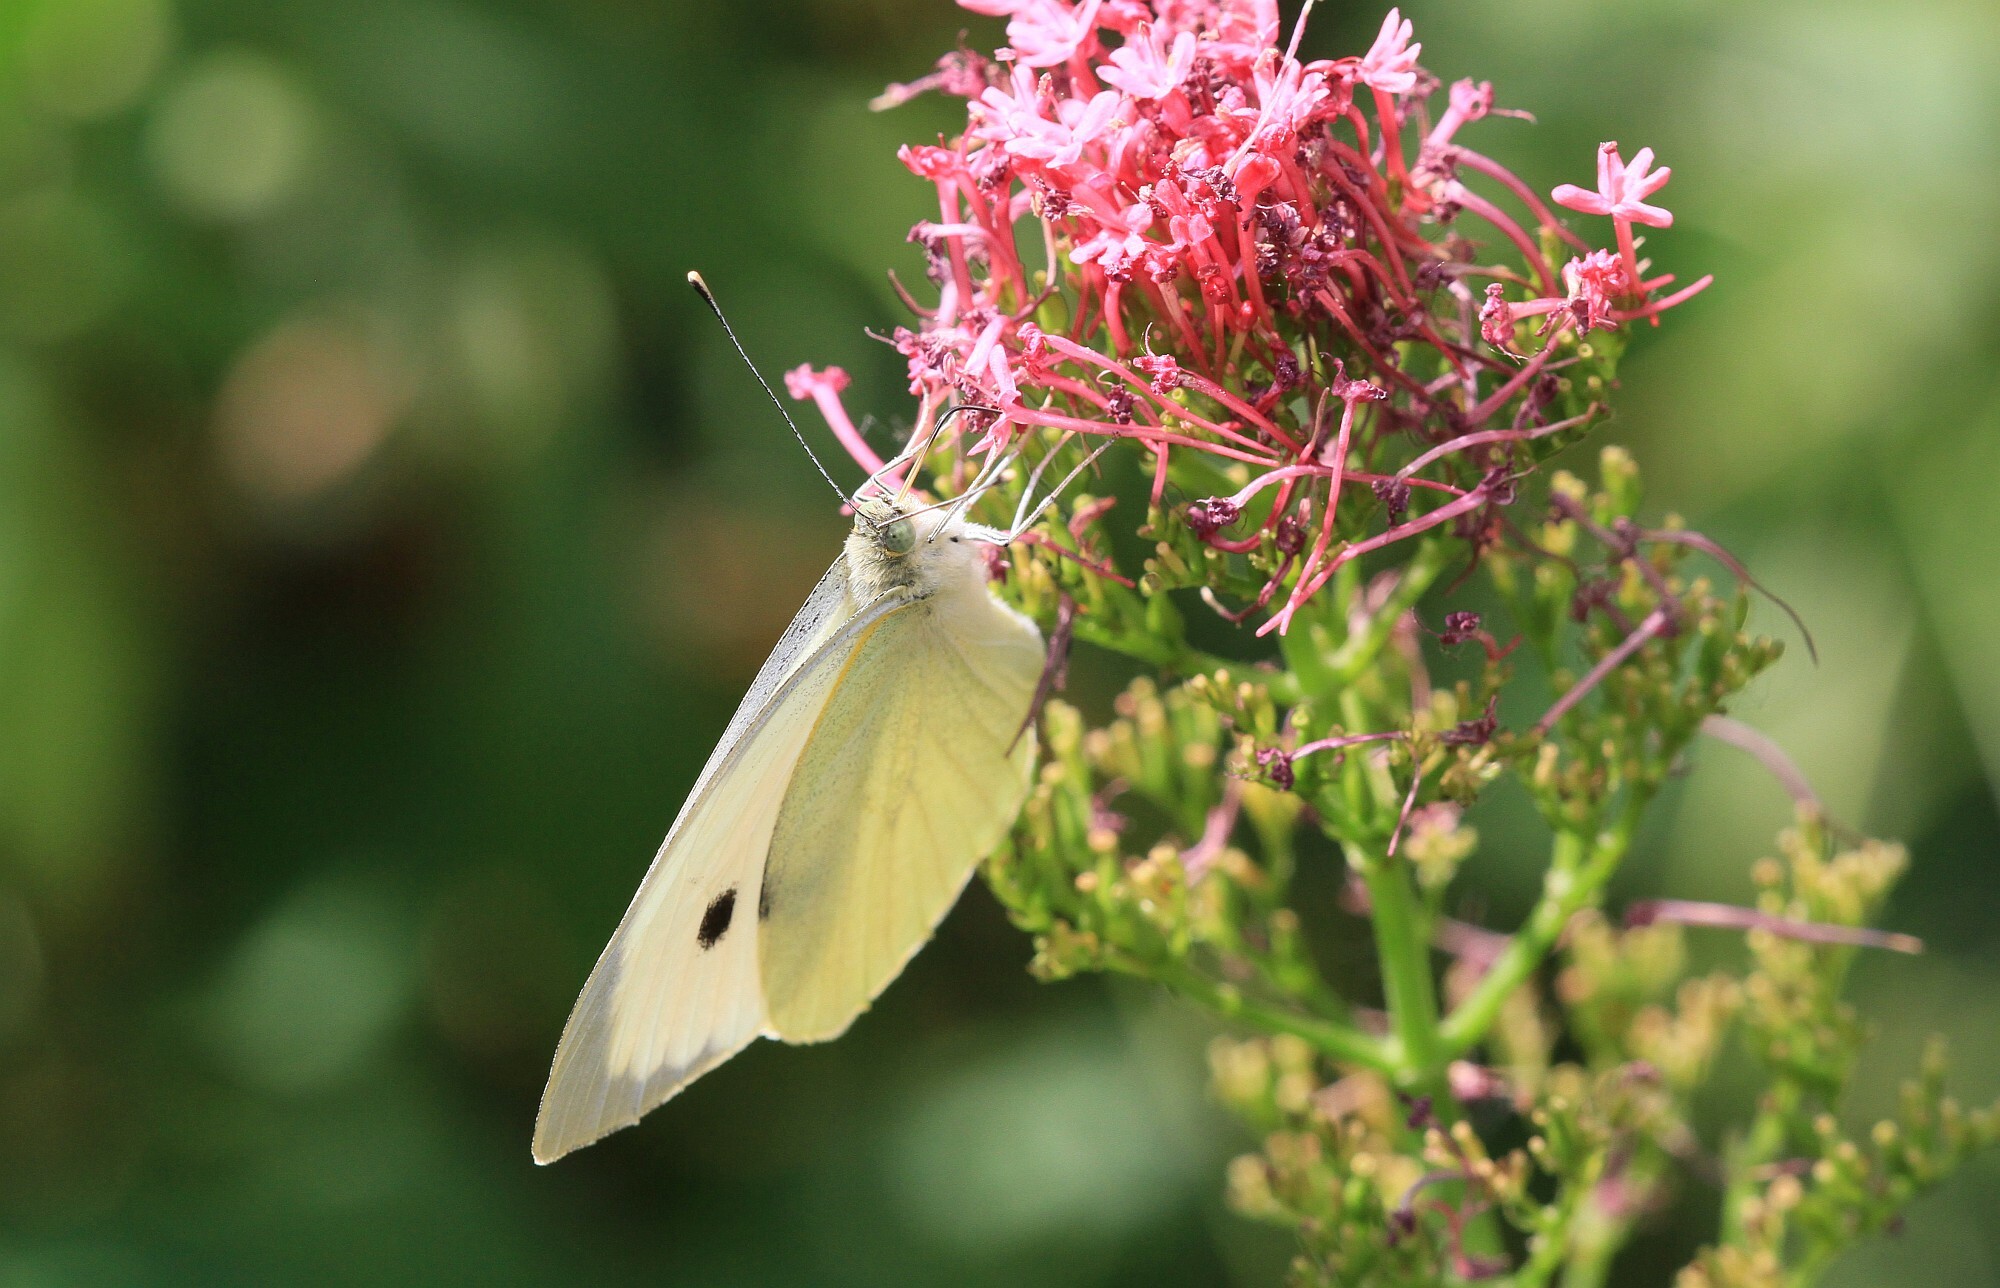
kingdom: Animalia
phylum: Arthropoda
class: Insecta
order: Lepidoptera
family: Pieridae
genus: Pieris
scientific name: Pieris brassicae
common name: Large white
